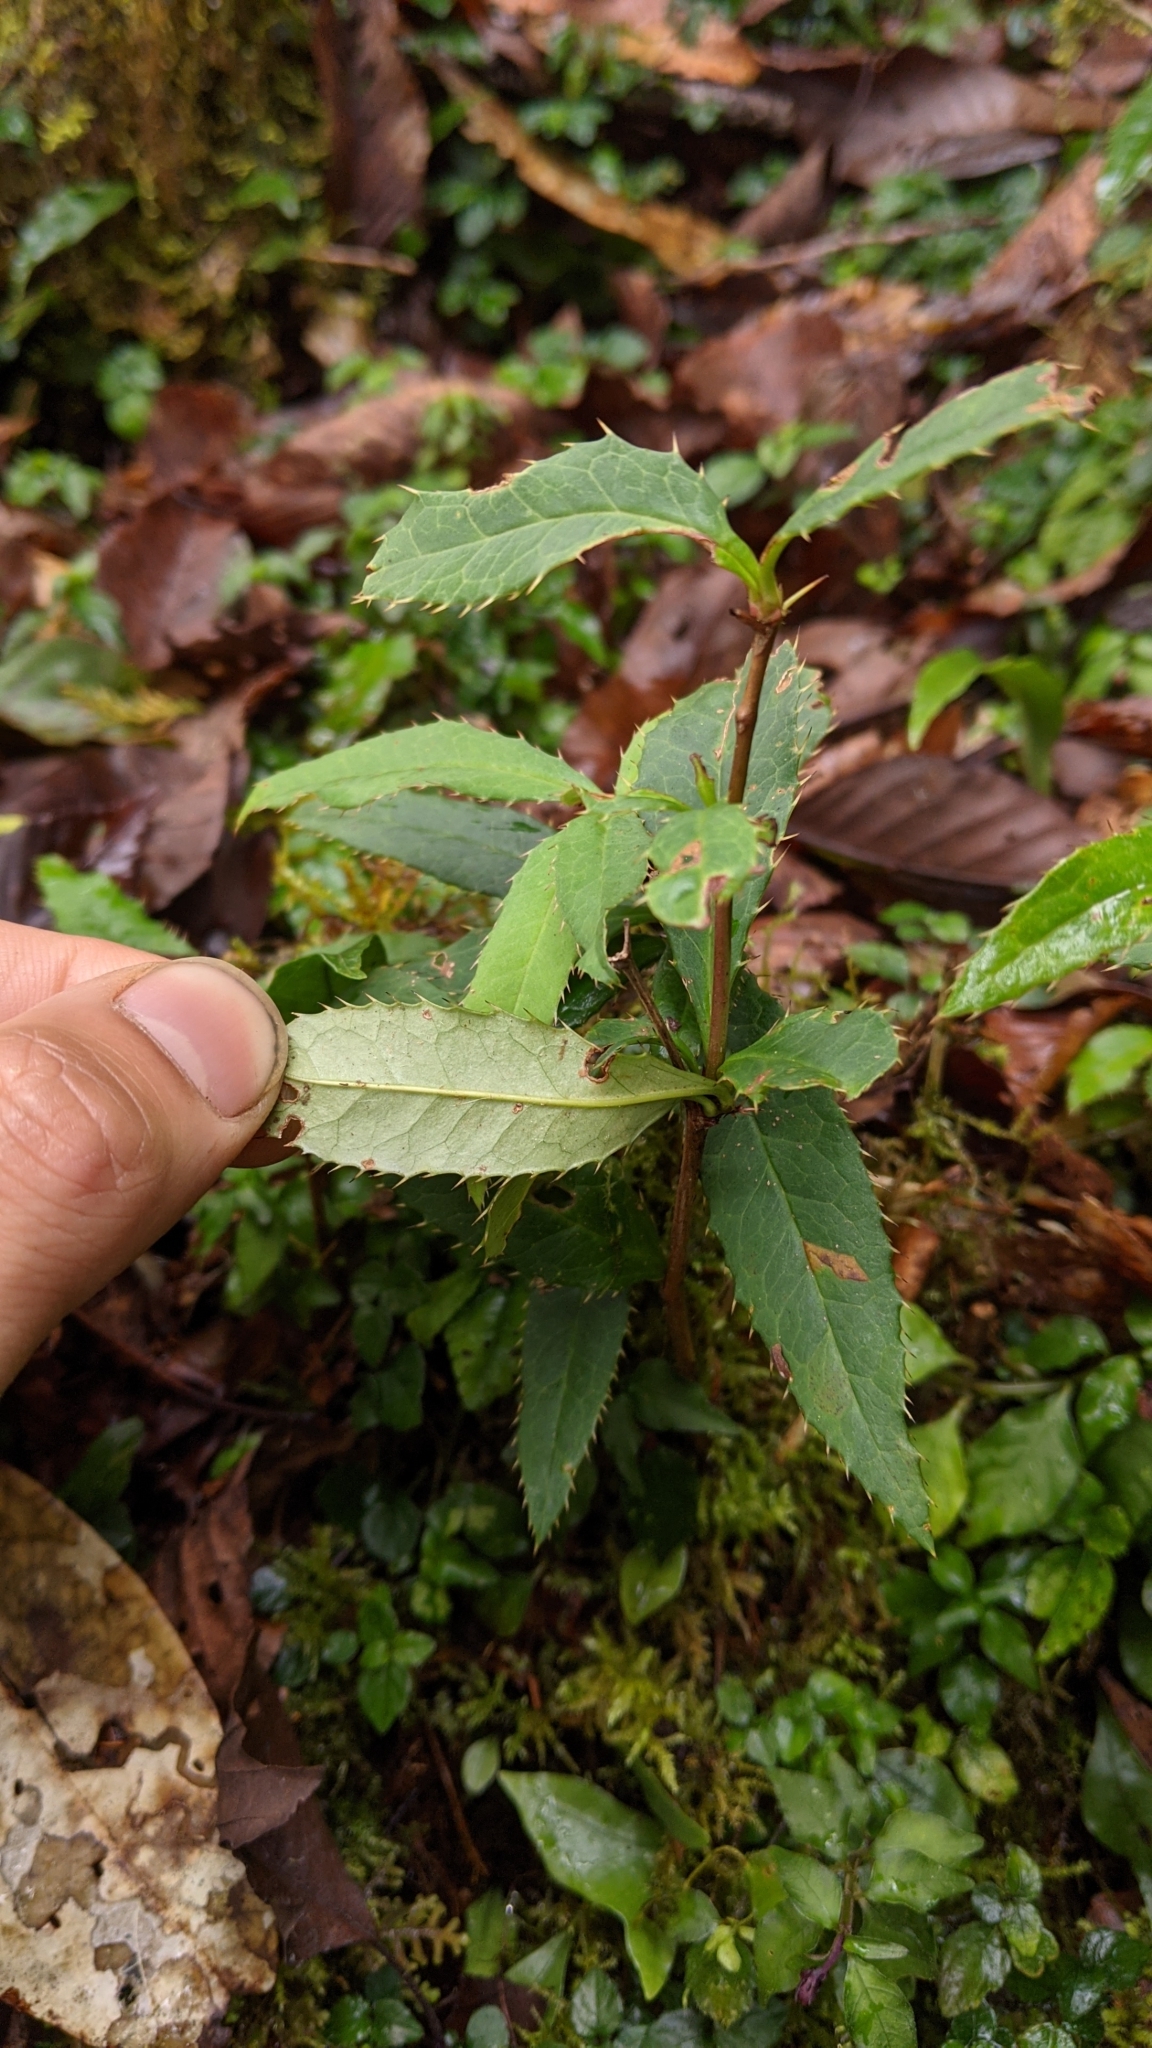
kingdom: Plantae
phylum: Tracheophyta
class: Magnoliopsida
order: Ranunculales
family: Berberidaceae
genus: Berberis
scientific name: Berberis morii
